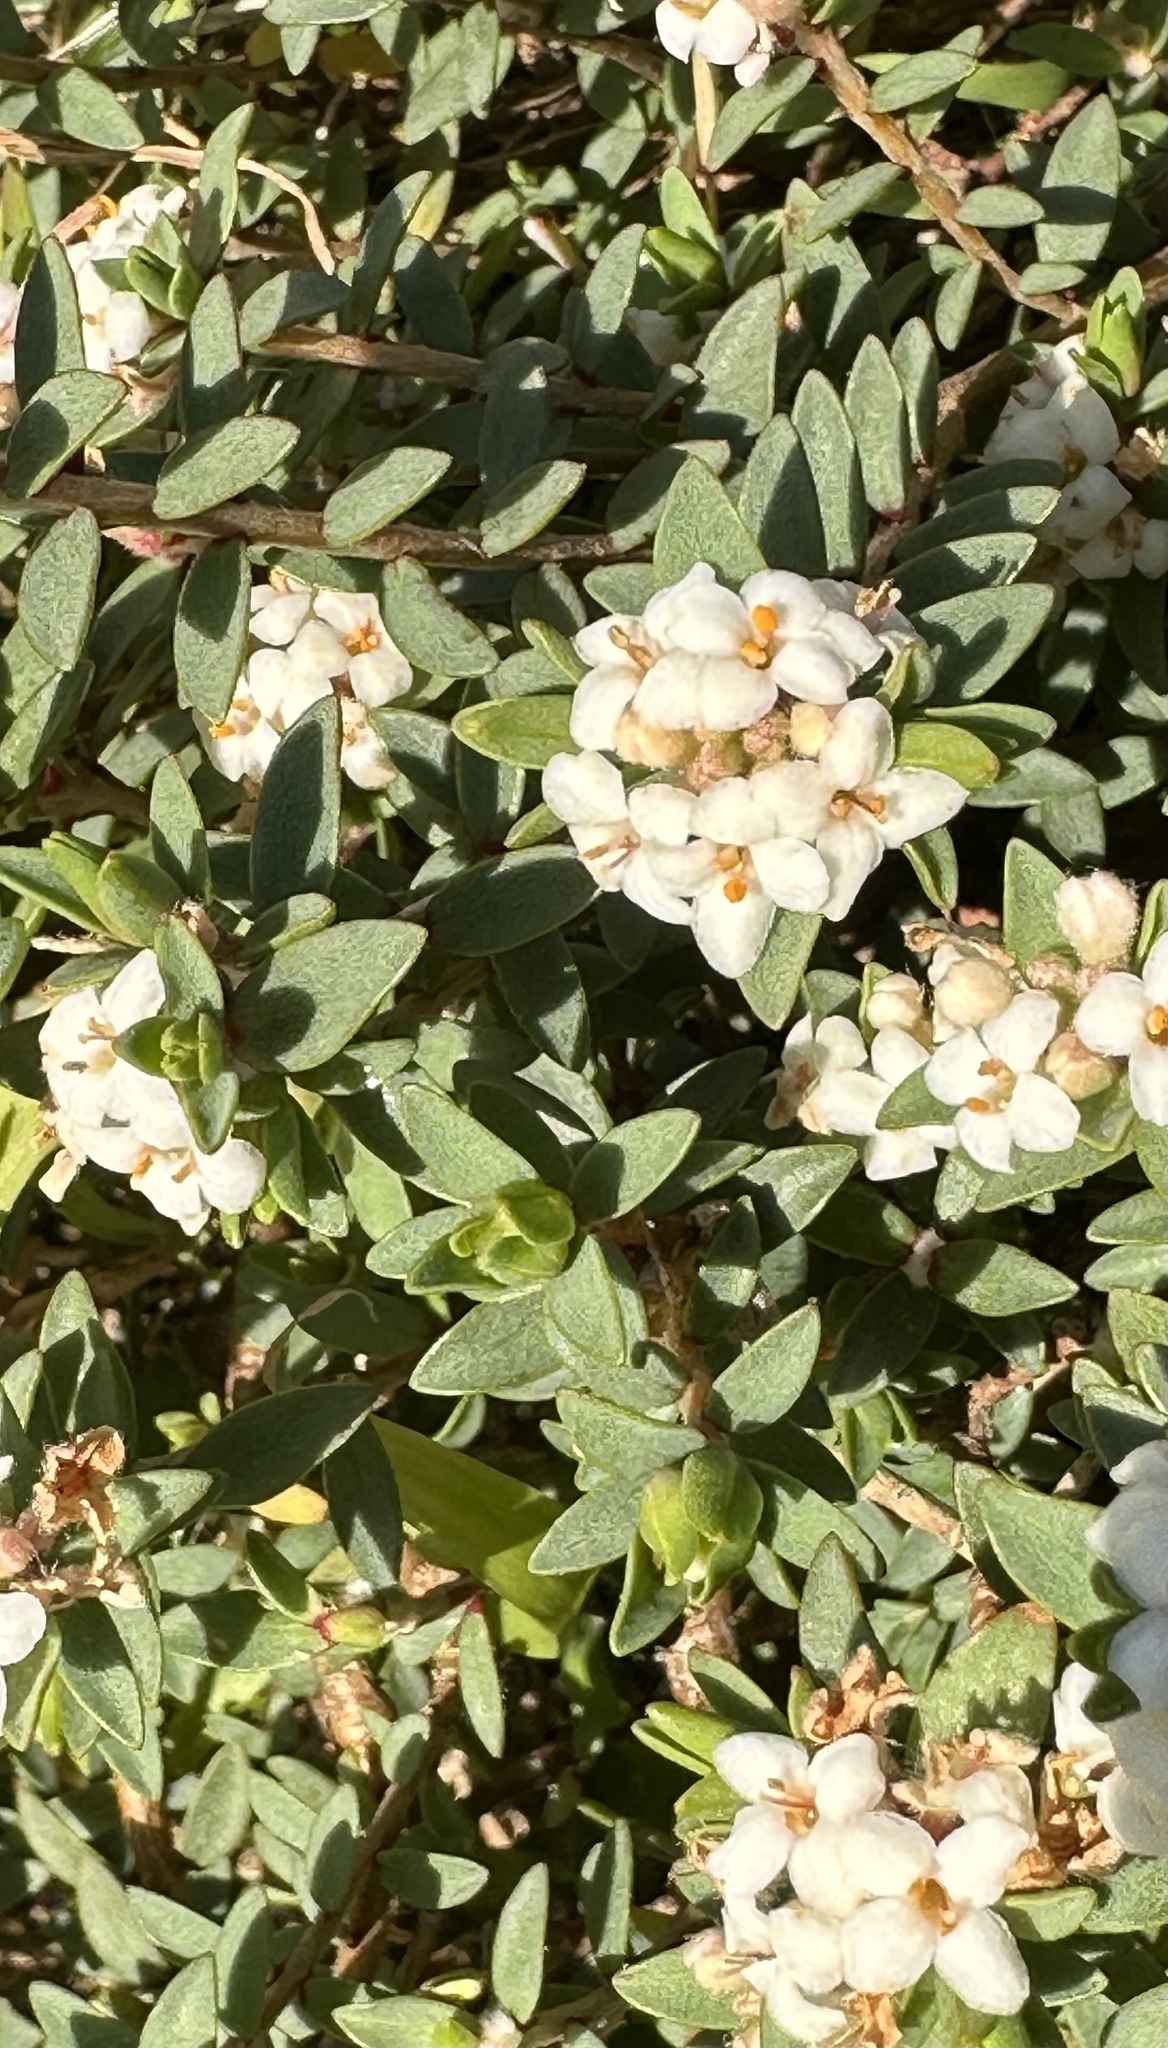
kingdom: Plantae
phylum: Tracheophyta
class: Magnoliopsida
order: Malvales
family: Thymelaeaceae
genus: Pimelea
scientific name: Pimelea prostrata
